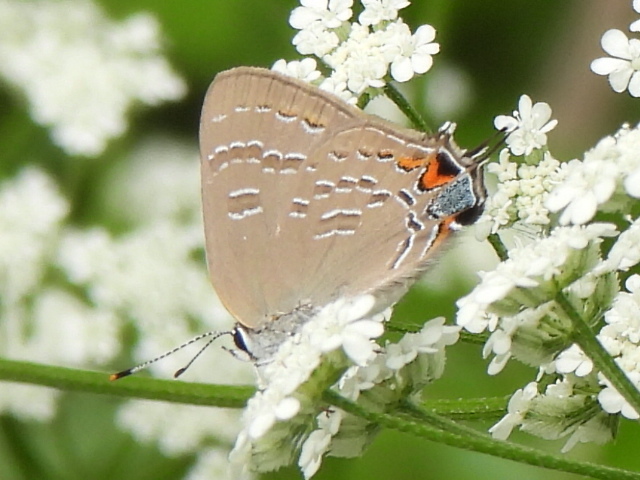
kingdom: Animalia
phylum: Arthropoda
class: Insecta
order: Lepidoptera
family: Lycaenidae
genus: Satyrium
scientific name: Satyrium calanus
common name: Banded hairstreak
